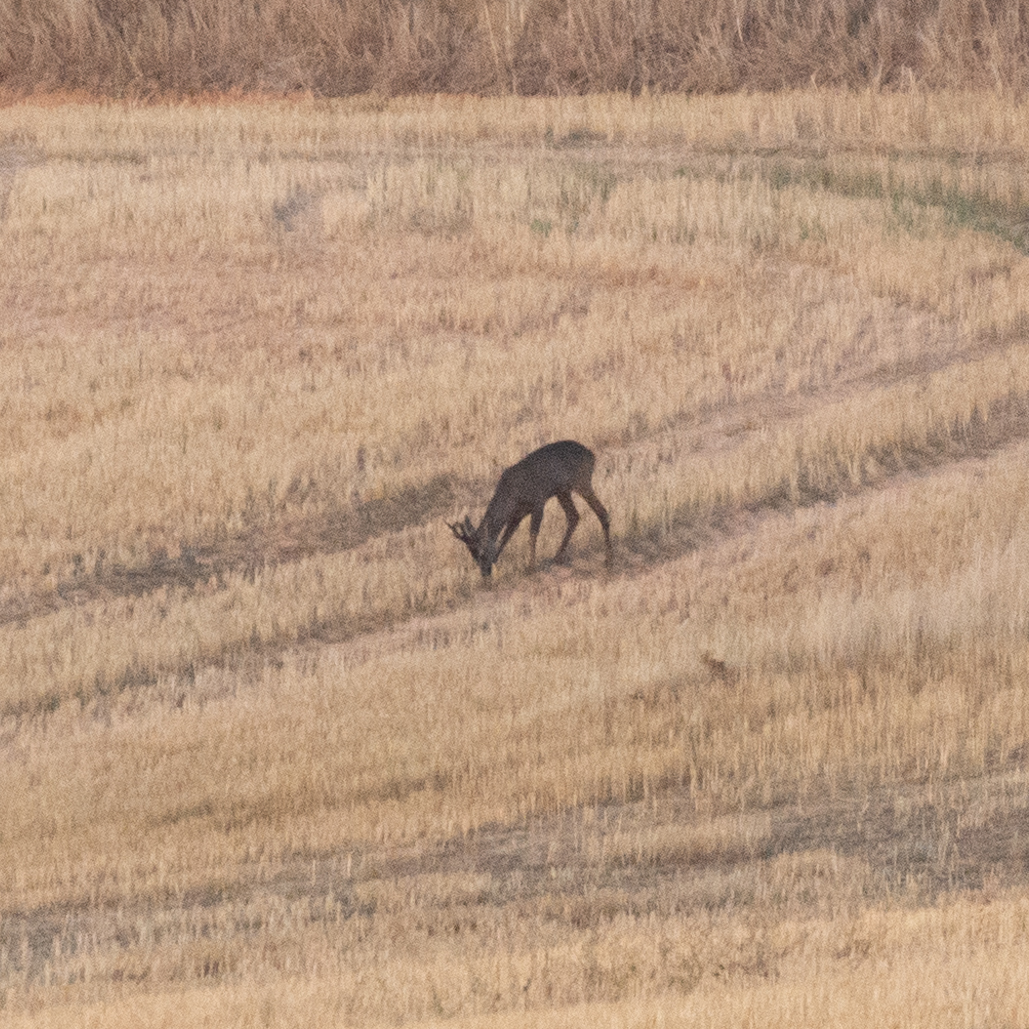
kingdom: Animalia
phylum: Chordata
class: Mammalia
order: Artiodactyla
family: Cervidae
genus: Capreolus
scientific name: Capreolus capreolus
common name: Western roe deer
